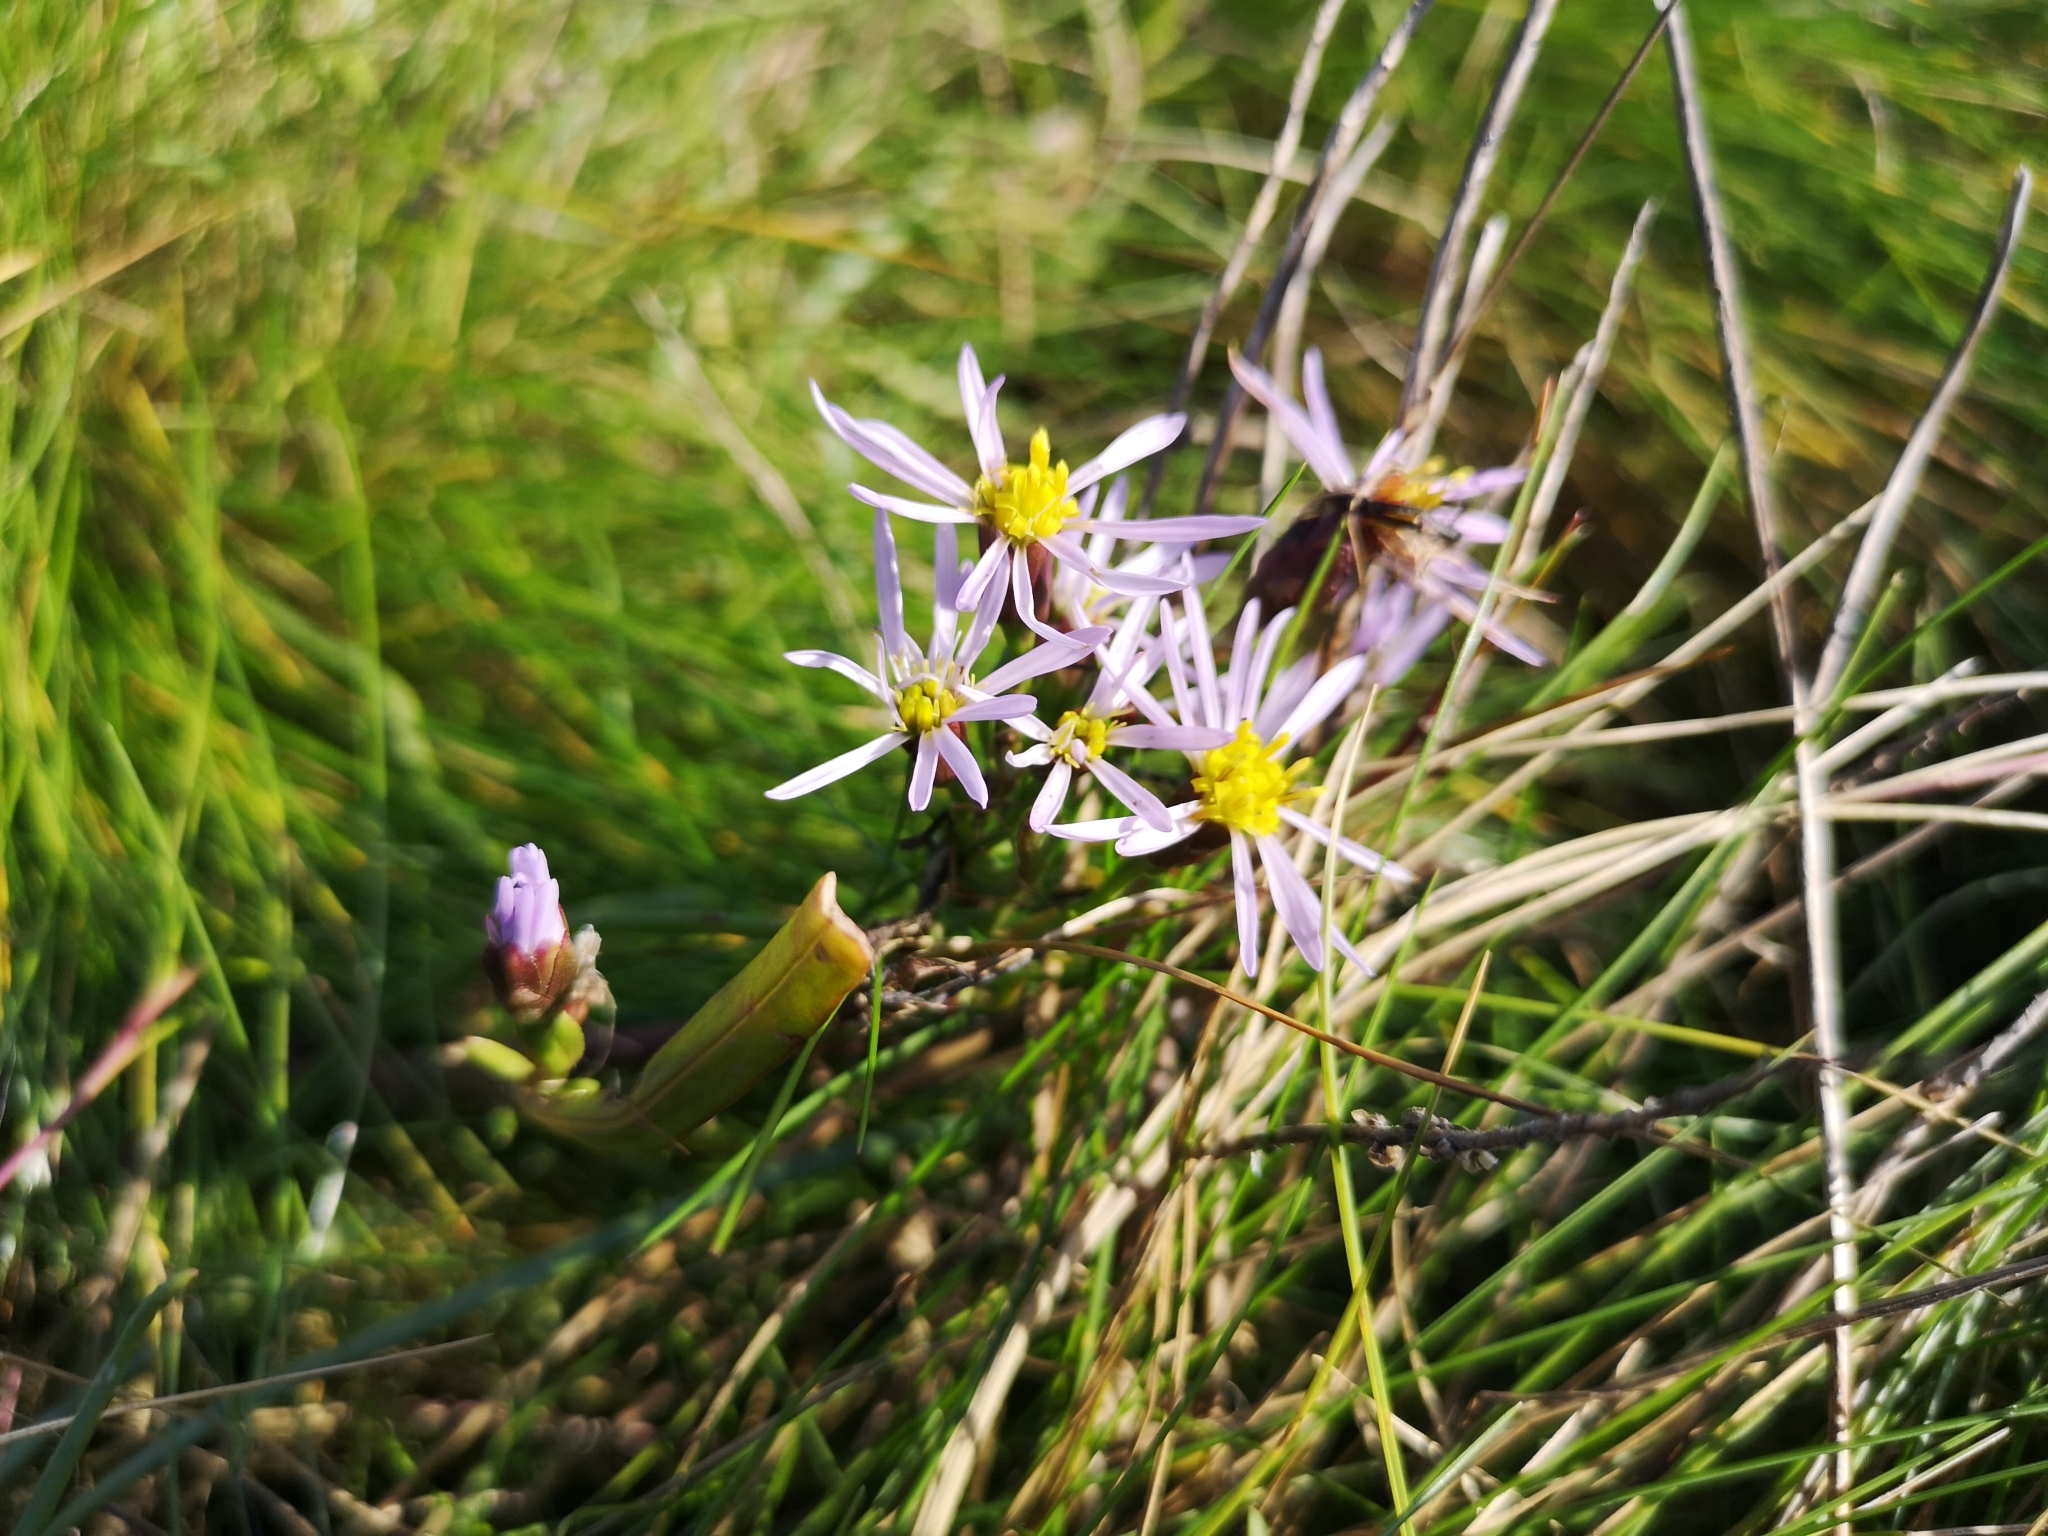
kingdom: Plantae
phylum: Tracheophyta
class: Magnoliopsida
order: Asterales
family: Asteraceae
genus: Tripolium
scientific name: Tripolium pannonicum
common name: Sea aster
